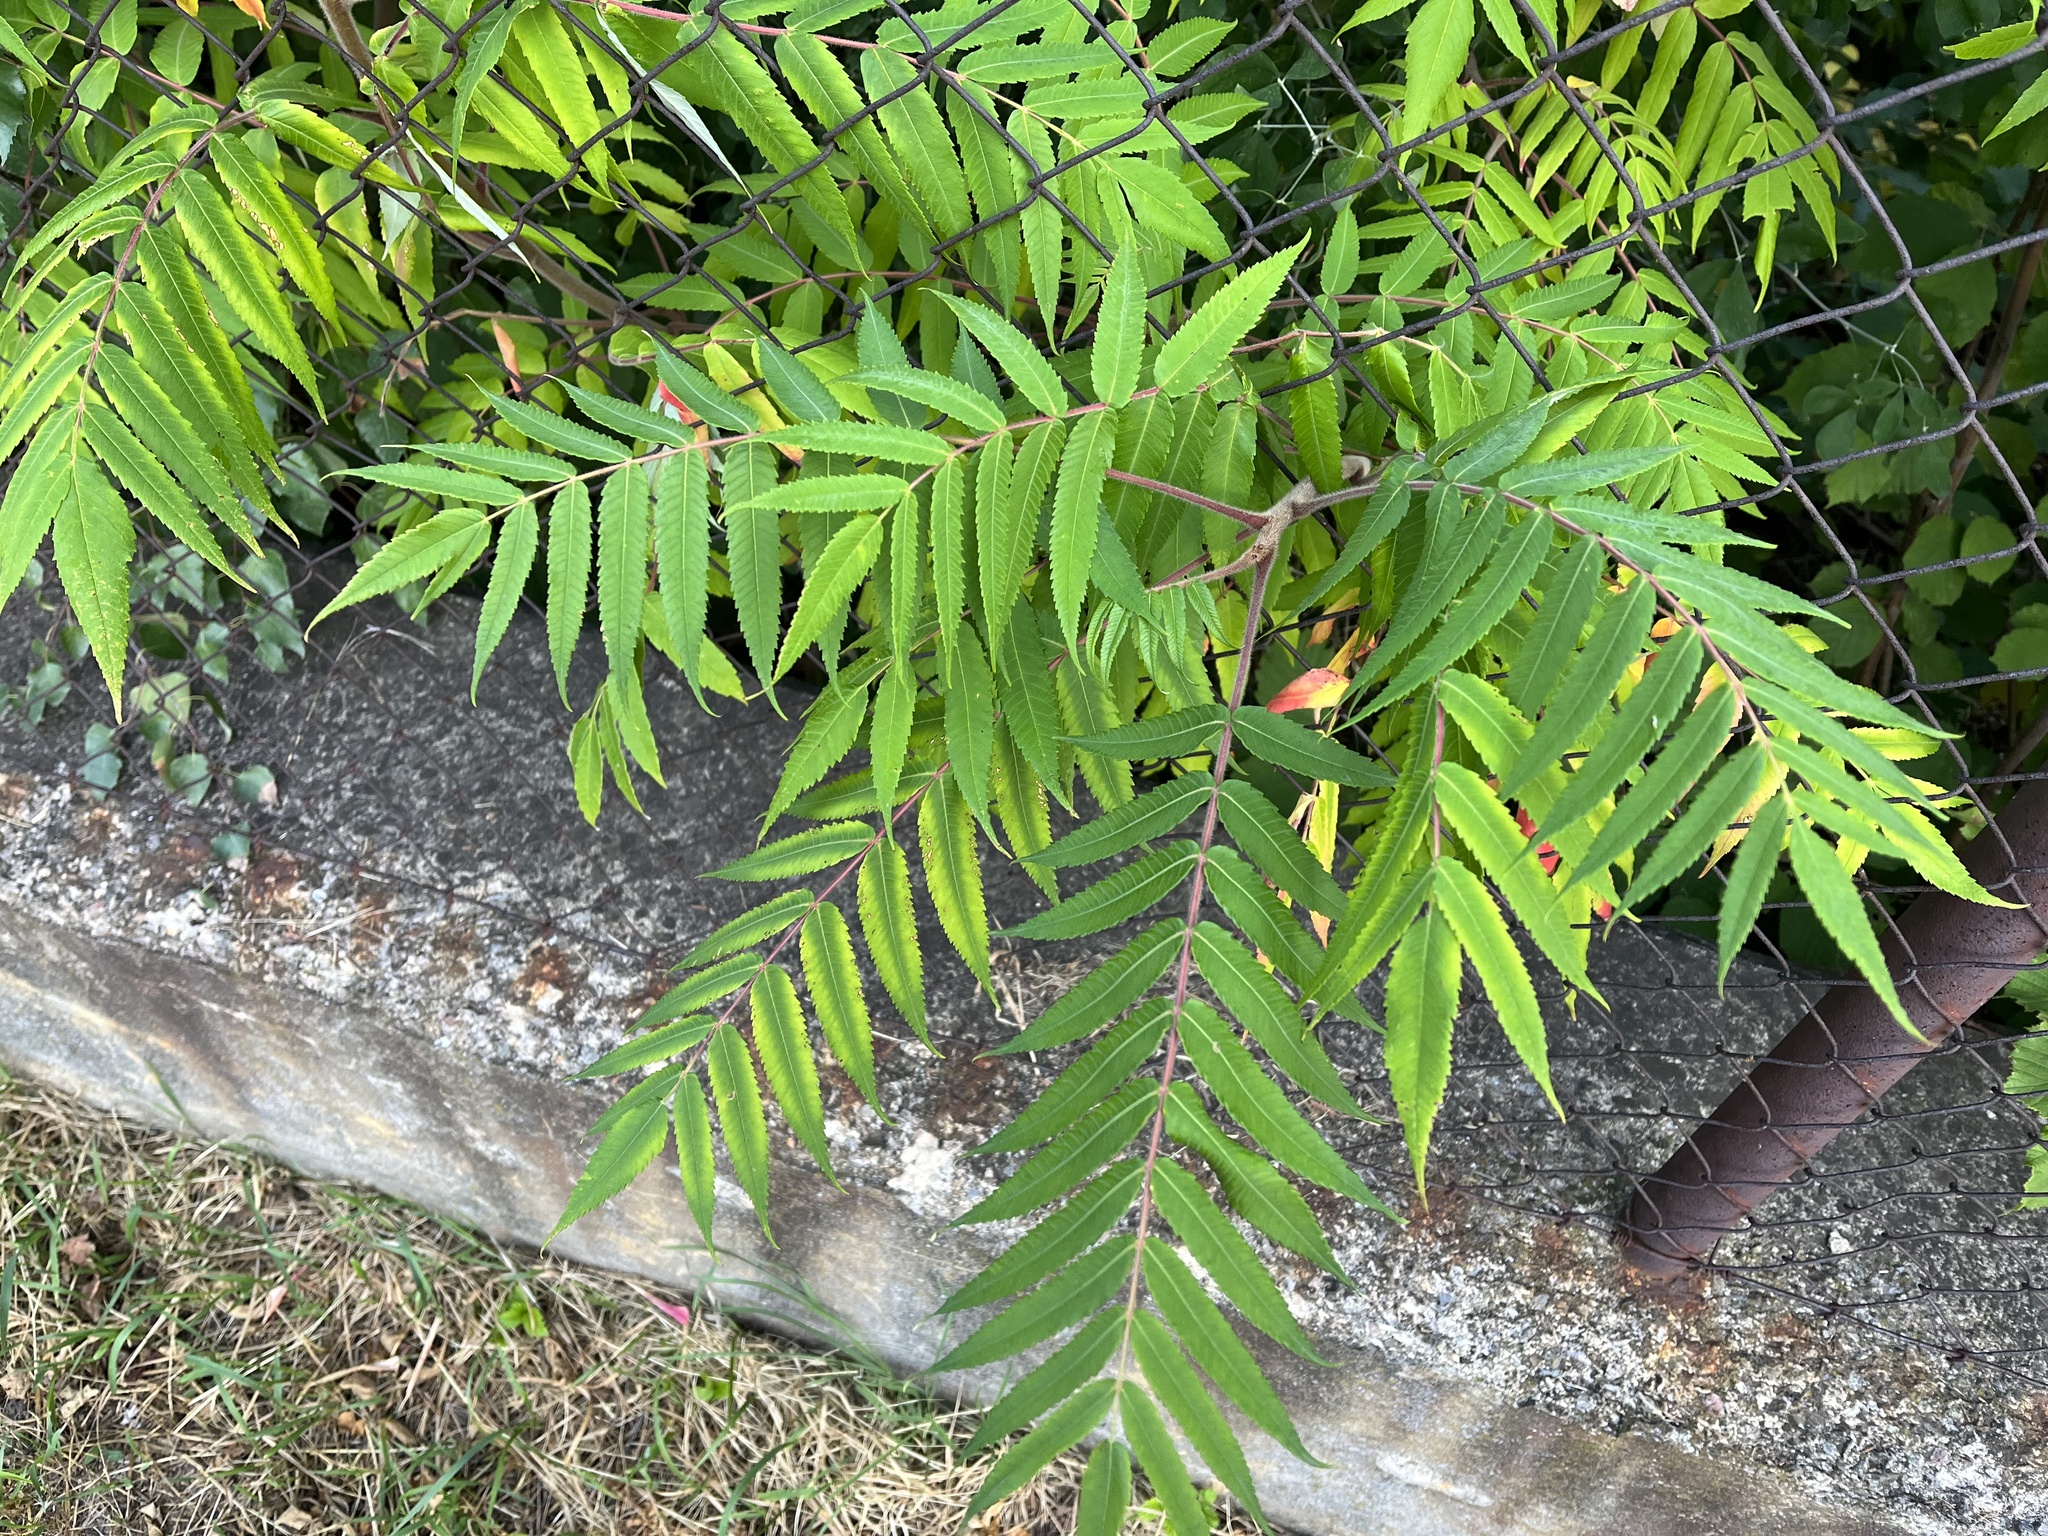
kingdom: Plantae
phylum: Tracheophyta
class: Magnoliopsida
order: Sapindales
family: Anacardiaceae
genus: Rhus
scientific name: Rhus typhina
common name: Staghorn sumac
